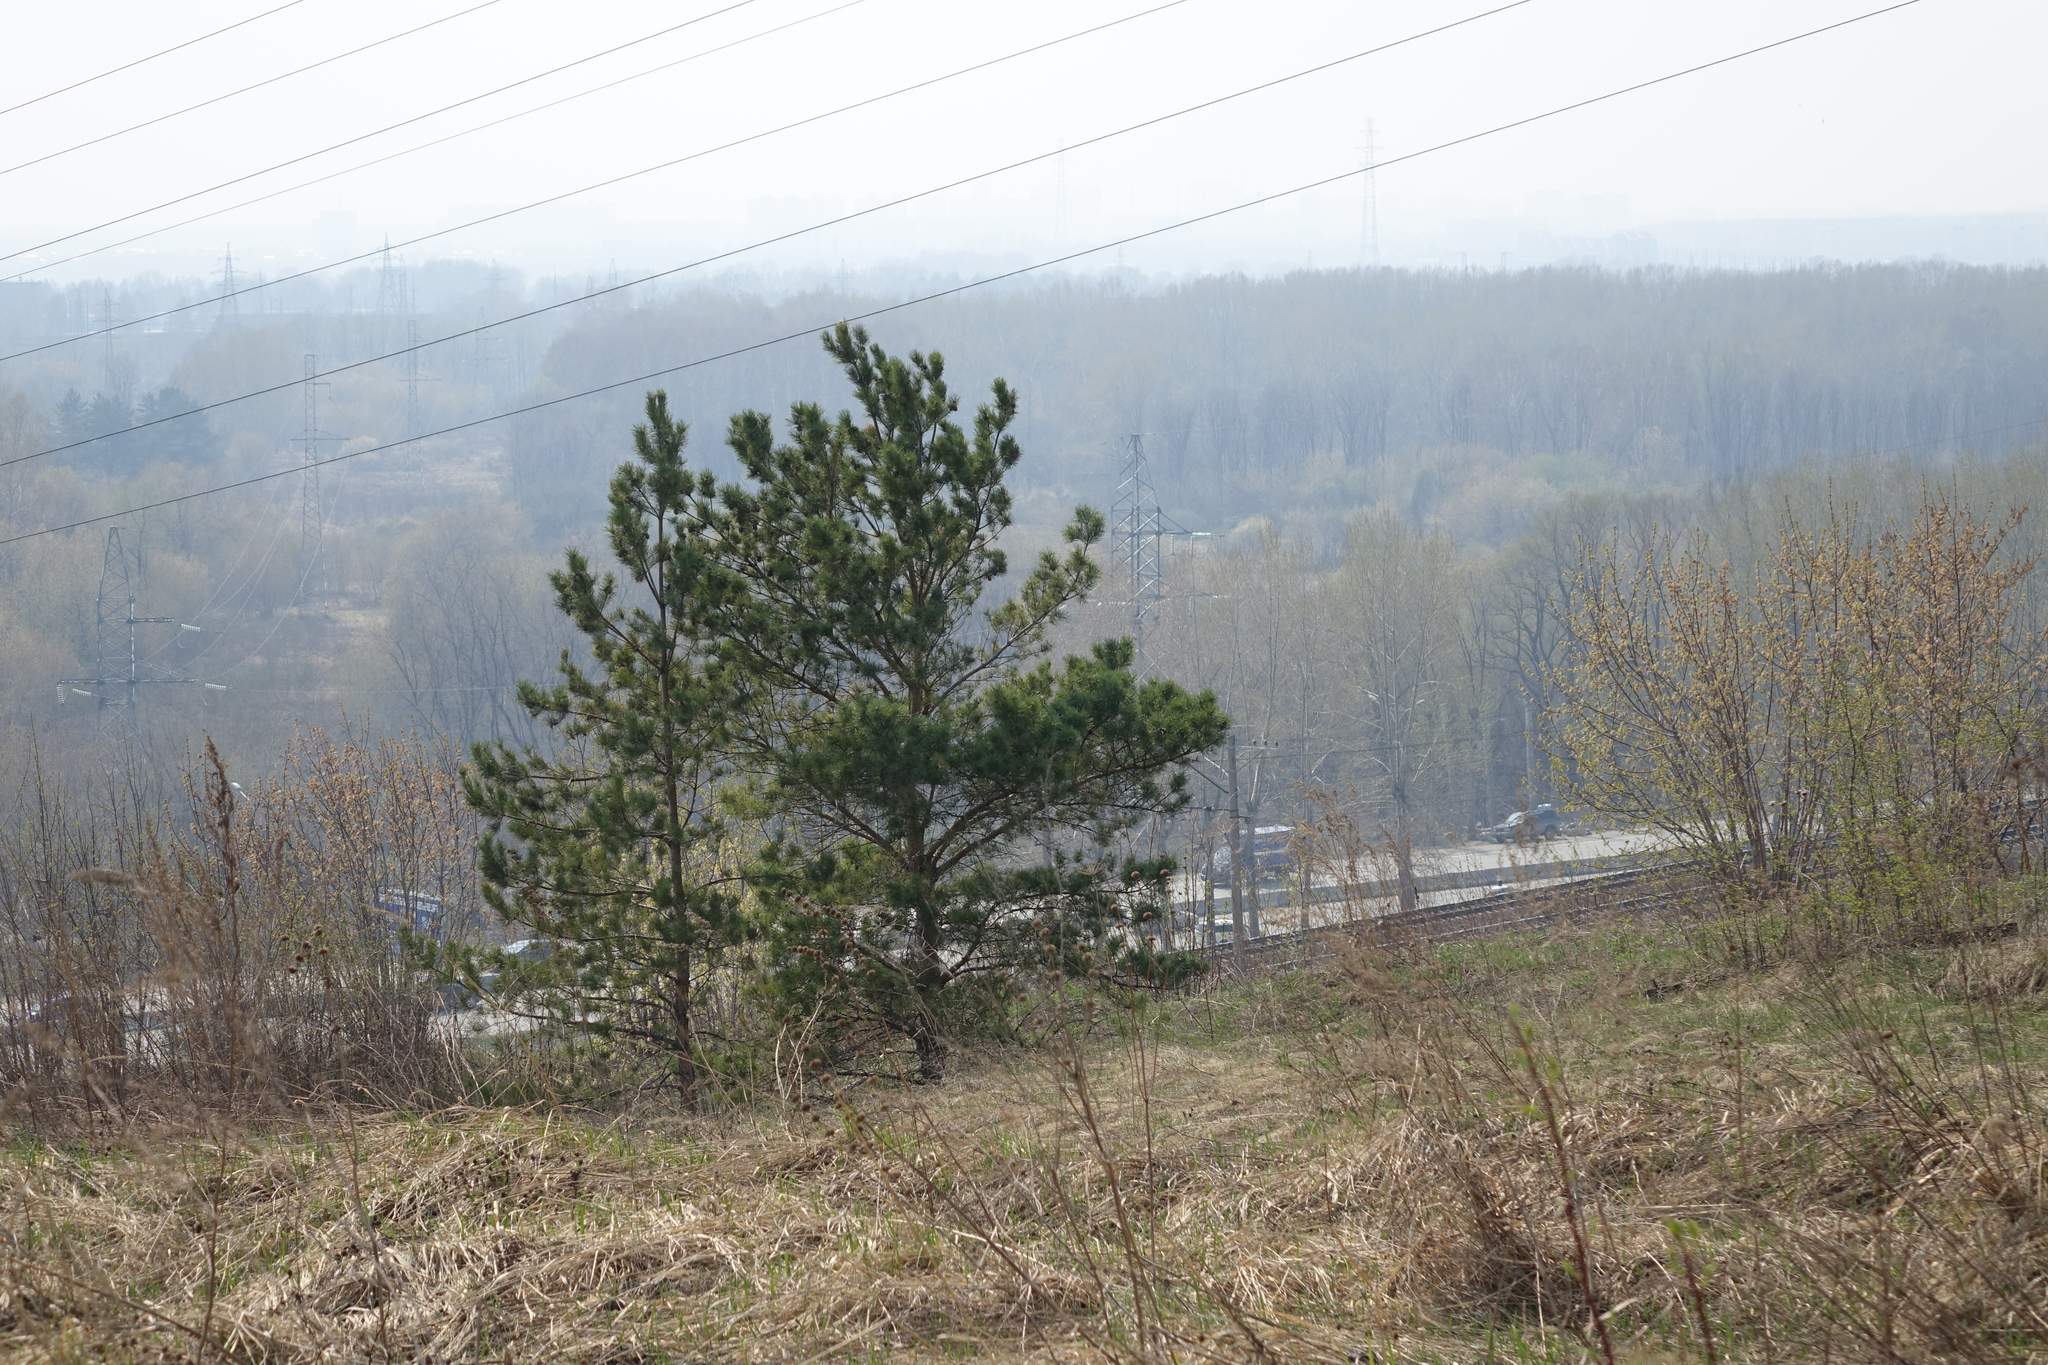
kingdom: Plantae
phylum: Tracheophyta
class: Pinopsida
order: Pinales
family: Pinaceae
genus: Pinus
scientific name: Pinus sylvestris
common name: Scots pine
